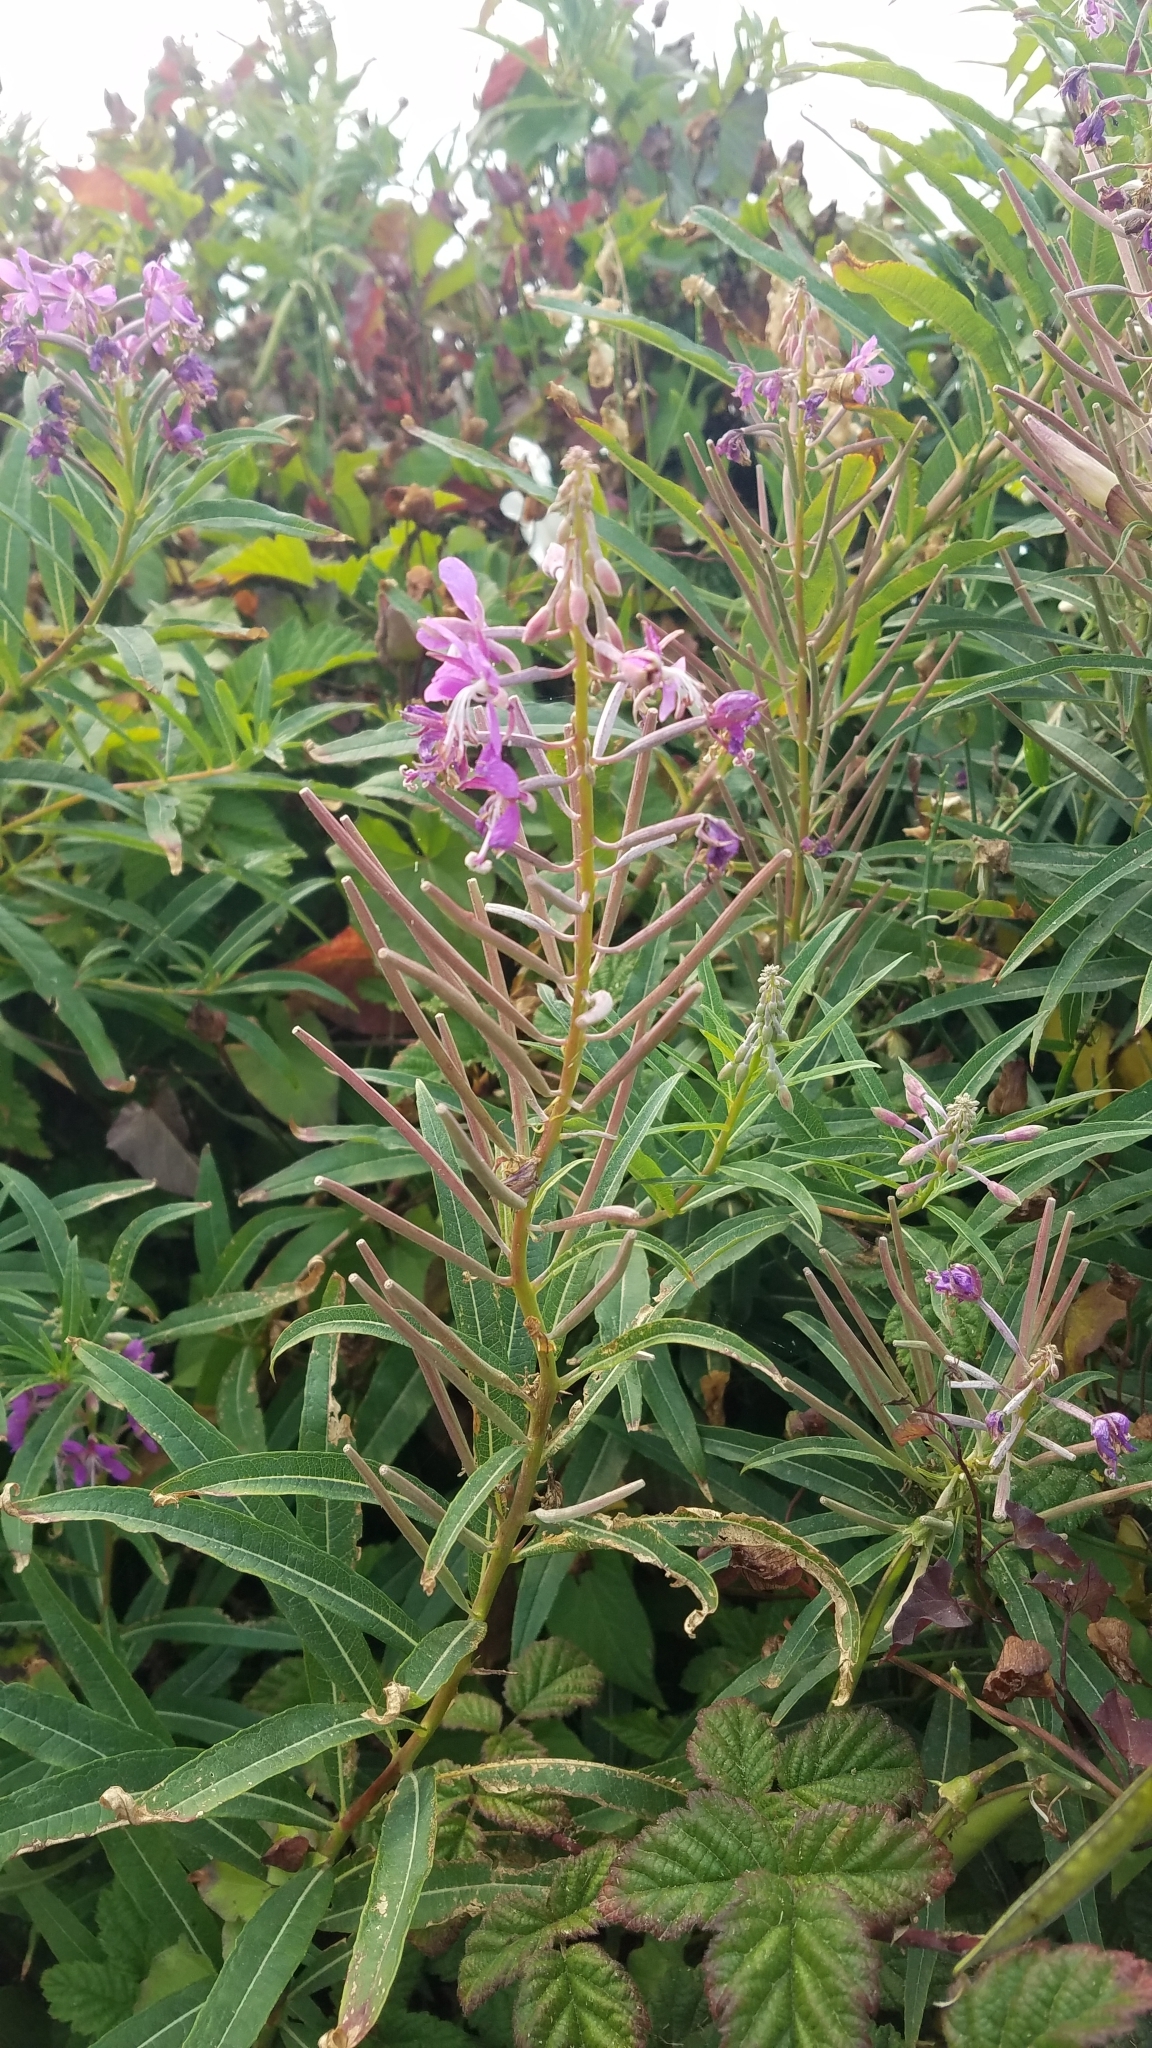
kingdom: Plantae
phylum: Tracheophyta
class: Magnoliopsida
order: Myrtales
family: Onagraceae
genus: Chamaenerion
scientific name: Chamaenerion angustifolium
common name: Fireweed
